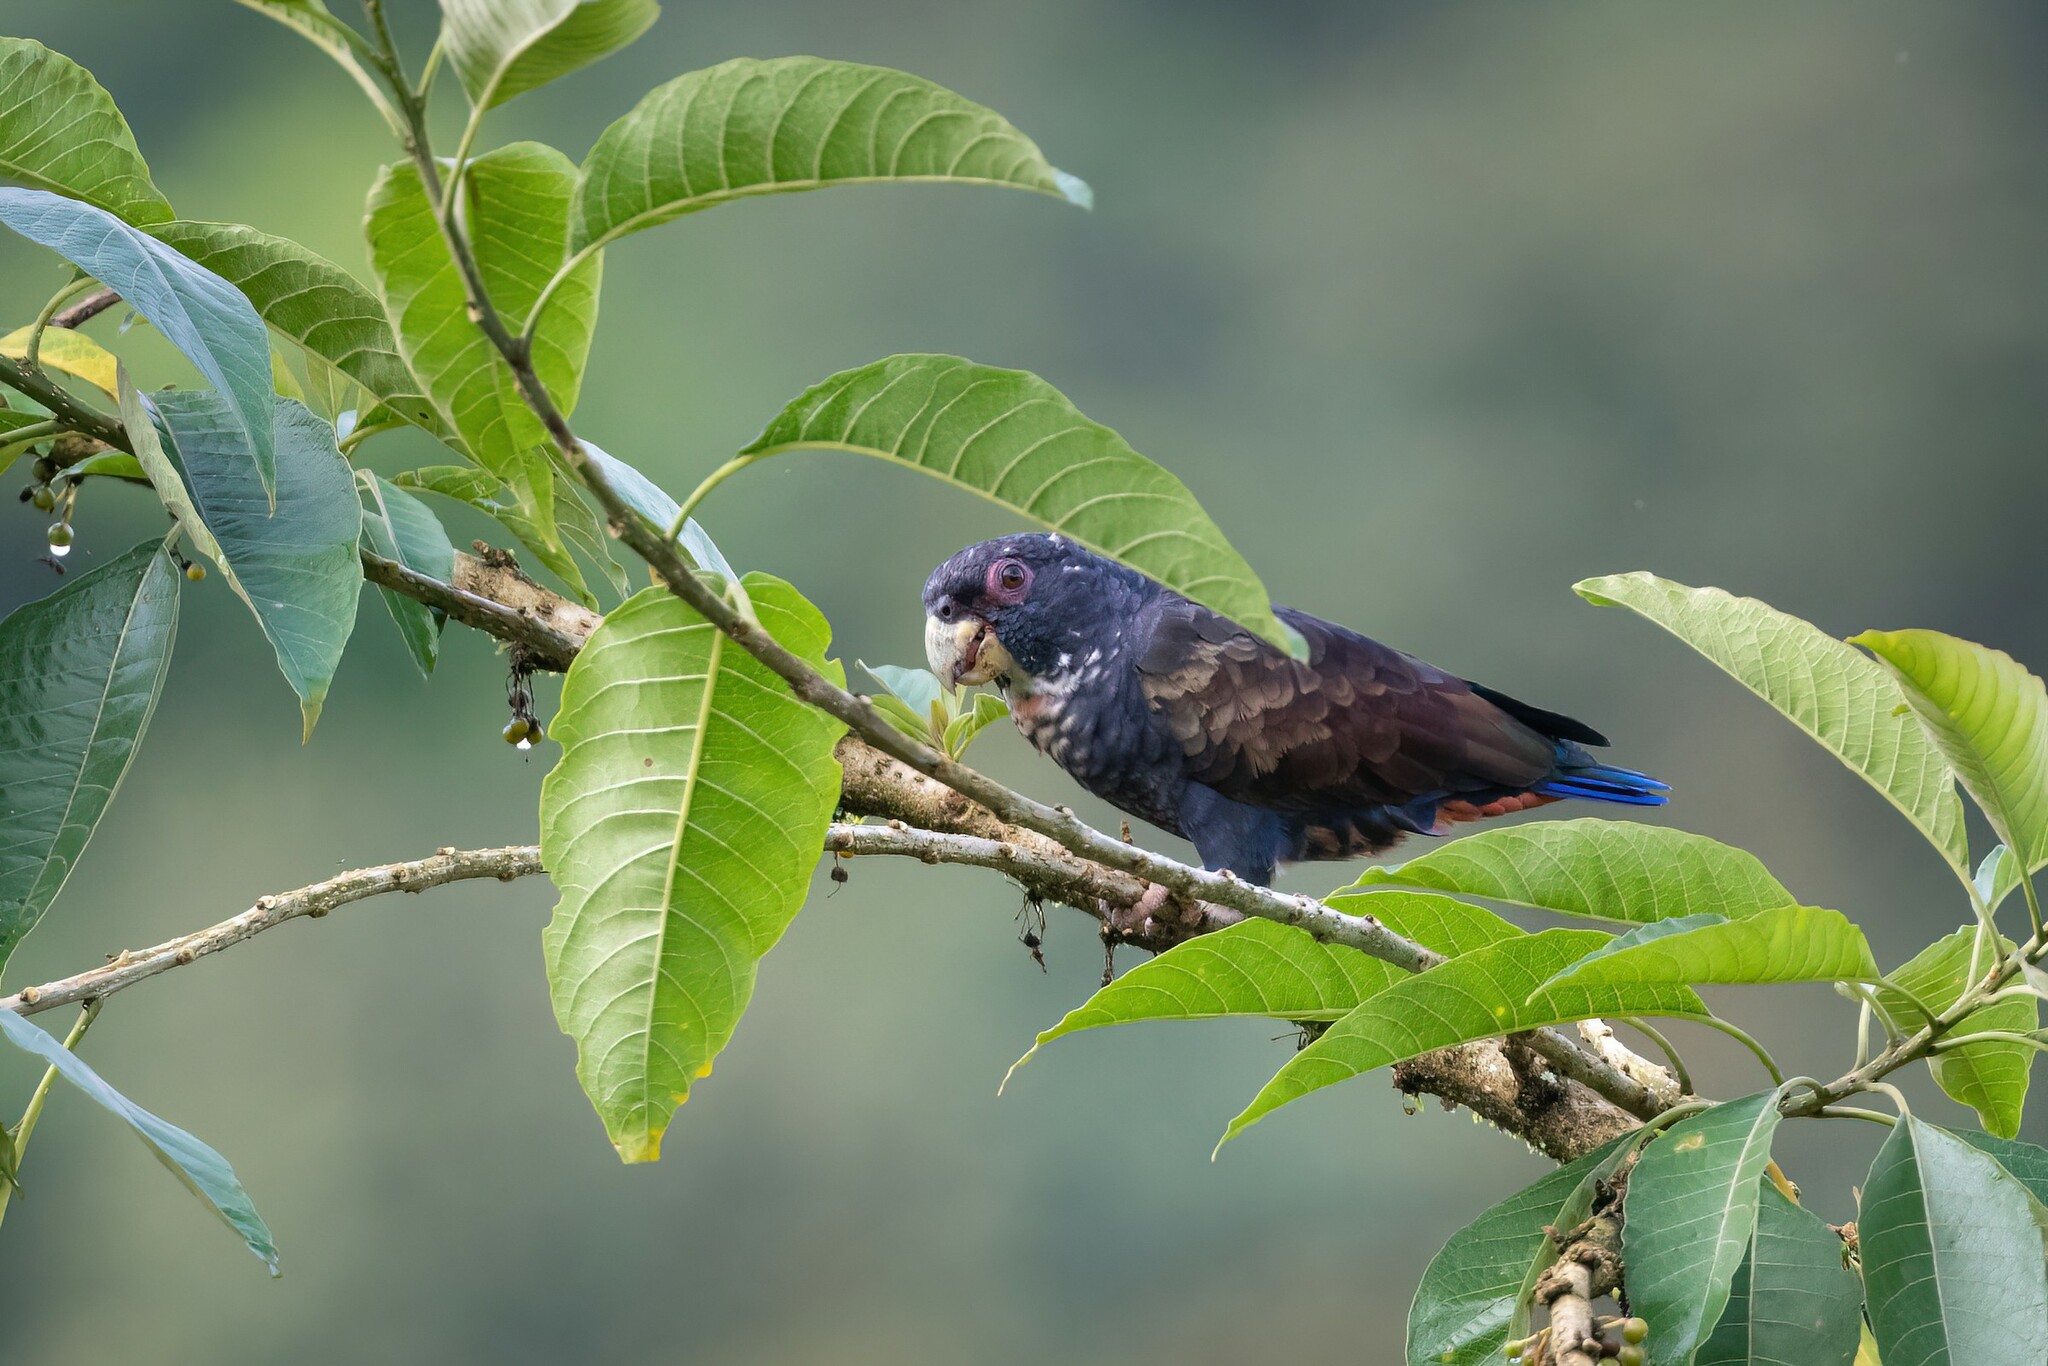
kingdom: Animalia
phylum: Chordata
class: Aves
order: Psittaciformes
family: Psittacidae
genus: Pionus
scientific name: Pionus chalcopterus
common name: Bronze-winged parrot
